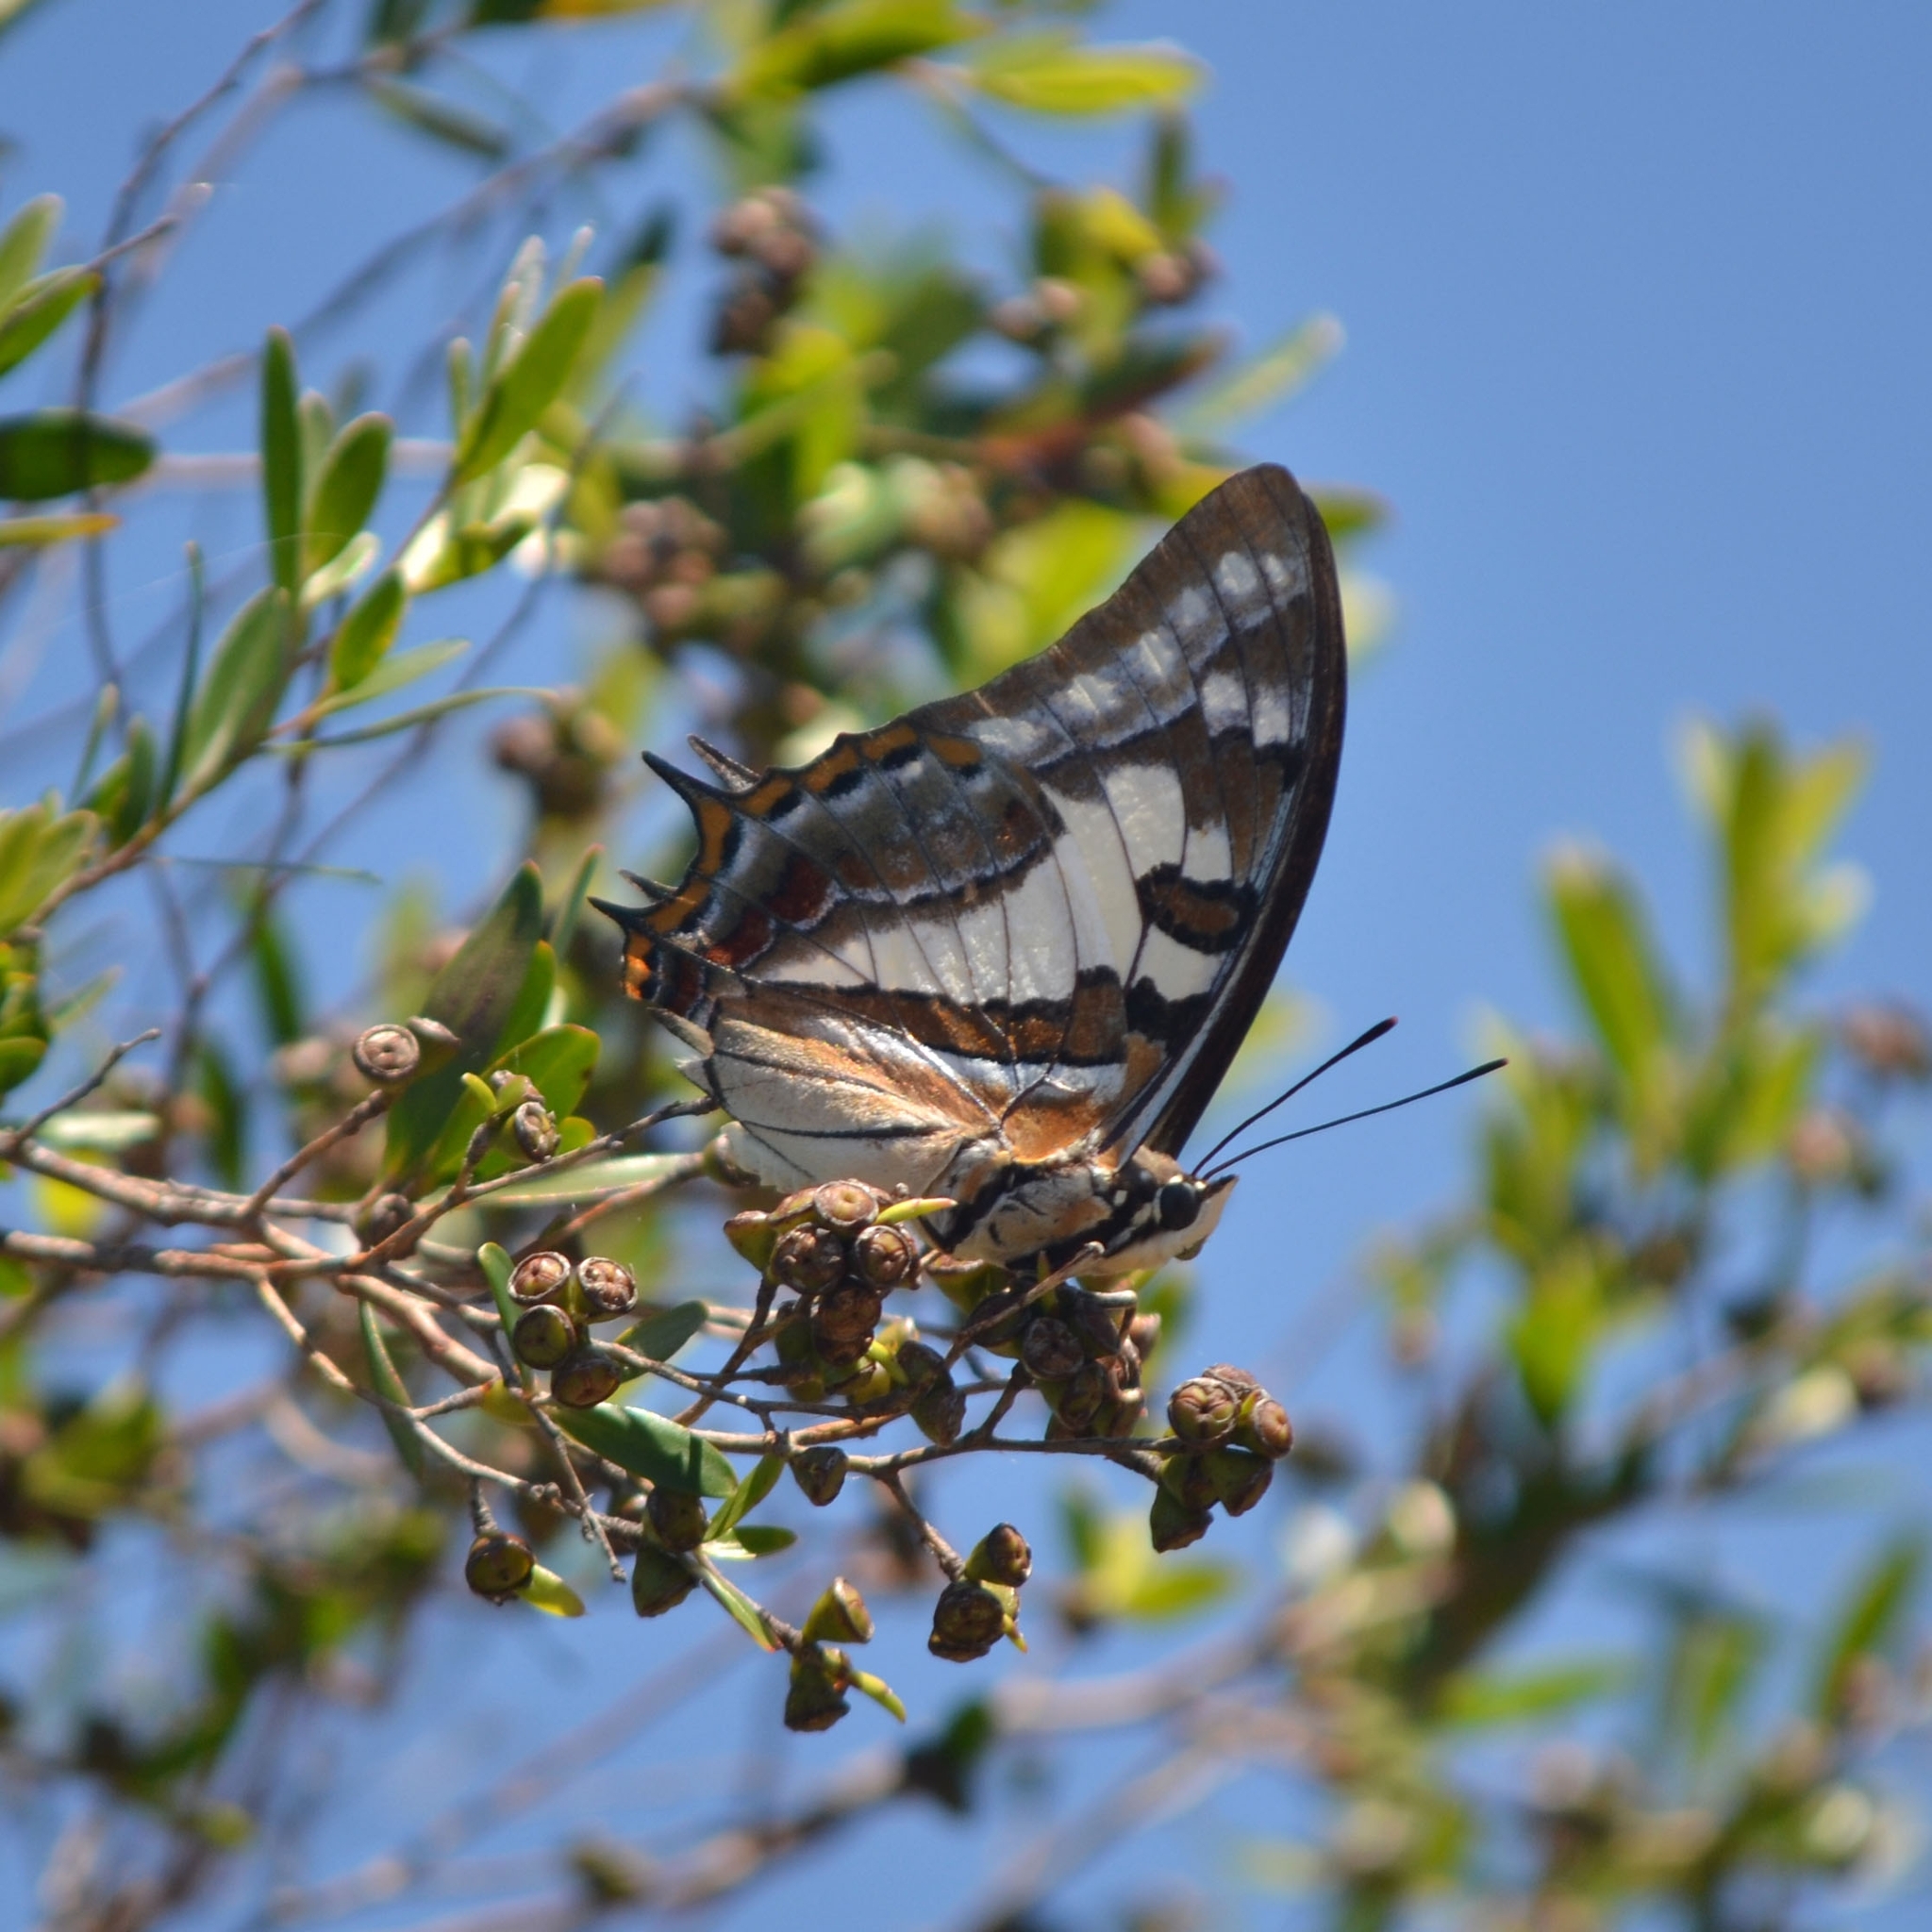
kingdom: Animalia
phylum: Arthropoda
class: Insecta
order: Lepidoptera
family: Nymphalidae
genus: Charaxes
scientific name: Charaxes
